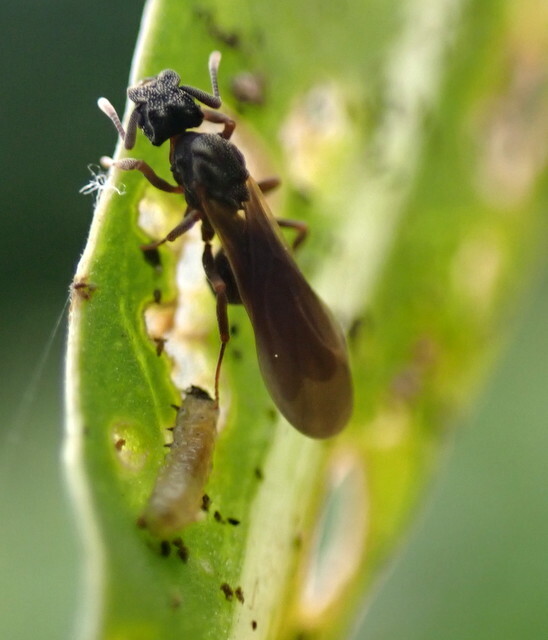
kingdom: Animalia
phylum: Arthropoda
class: Insecta
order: Hymenoptera
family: Formicidae
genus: Cyphomyrmex
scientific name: Cyphomyrmex rimosus
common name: Rimose fungus ant
